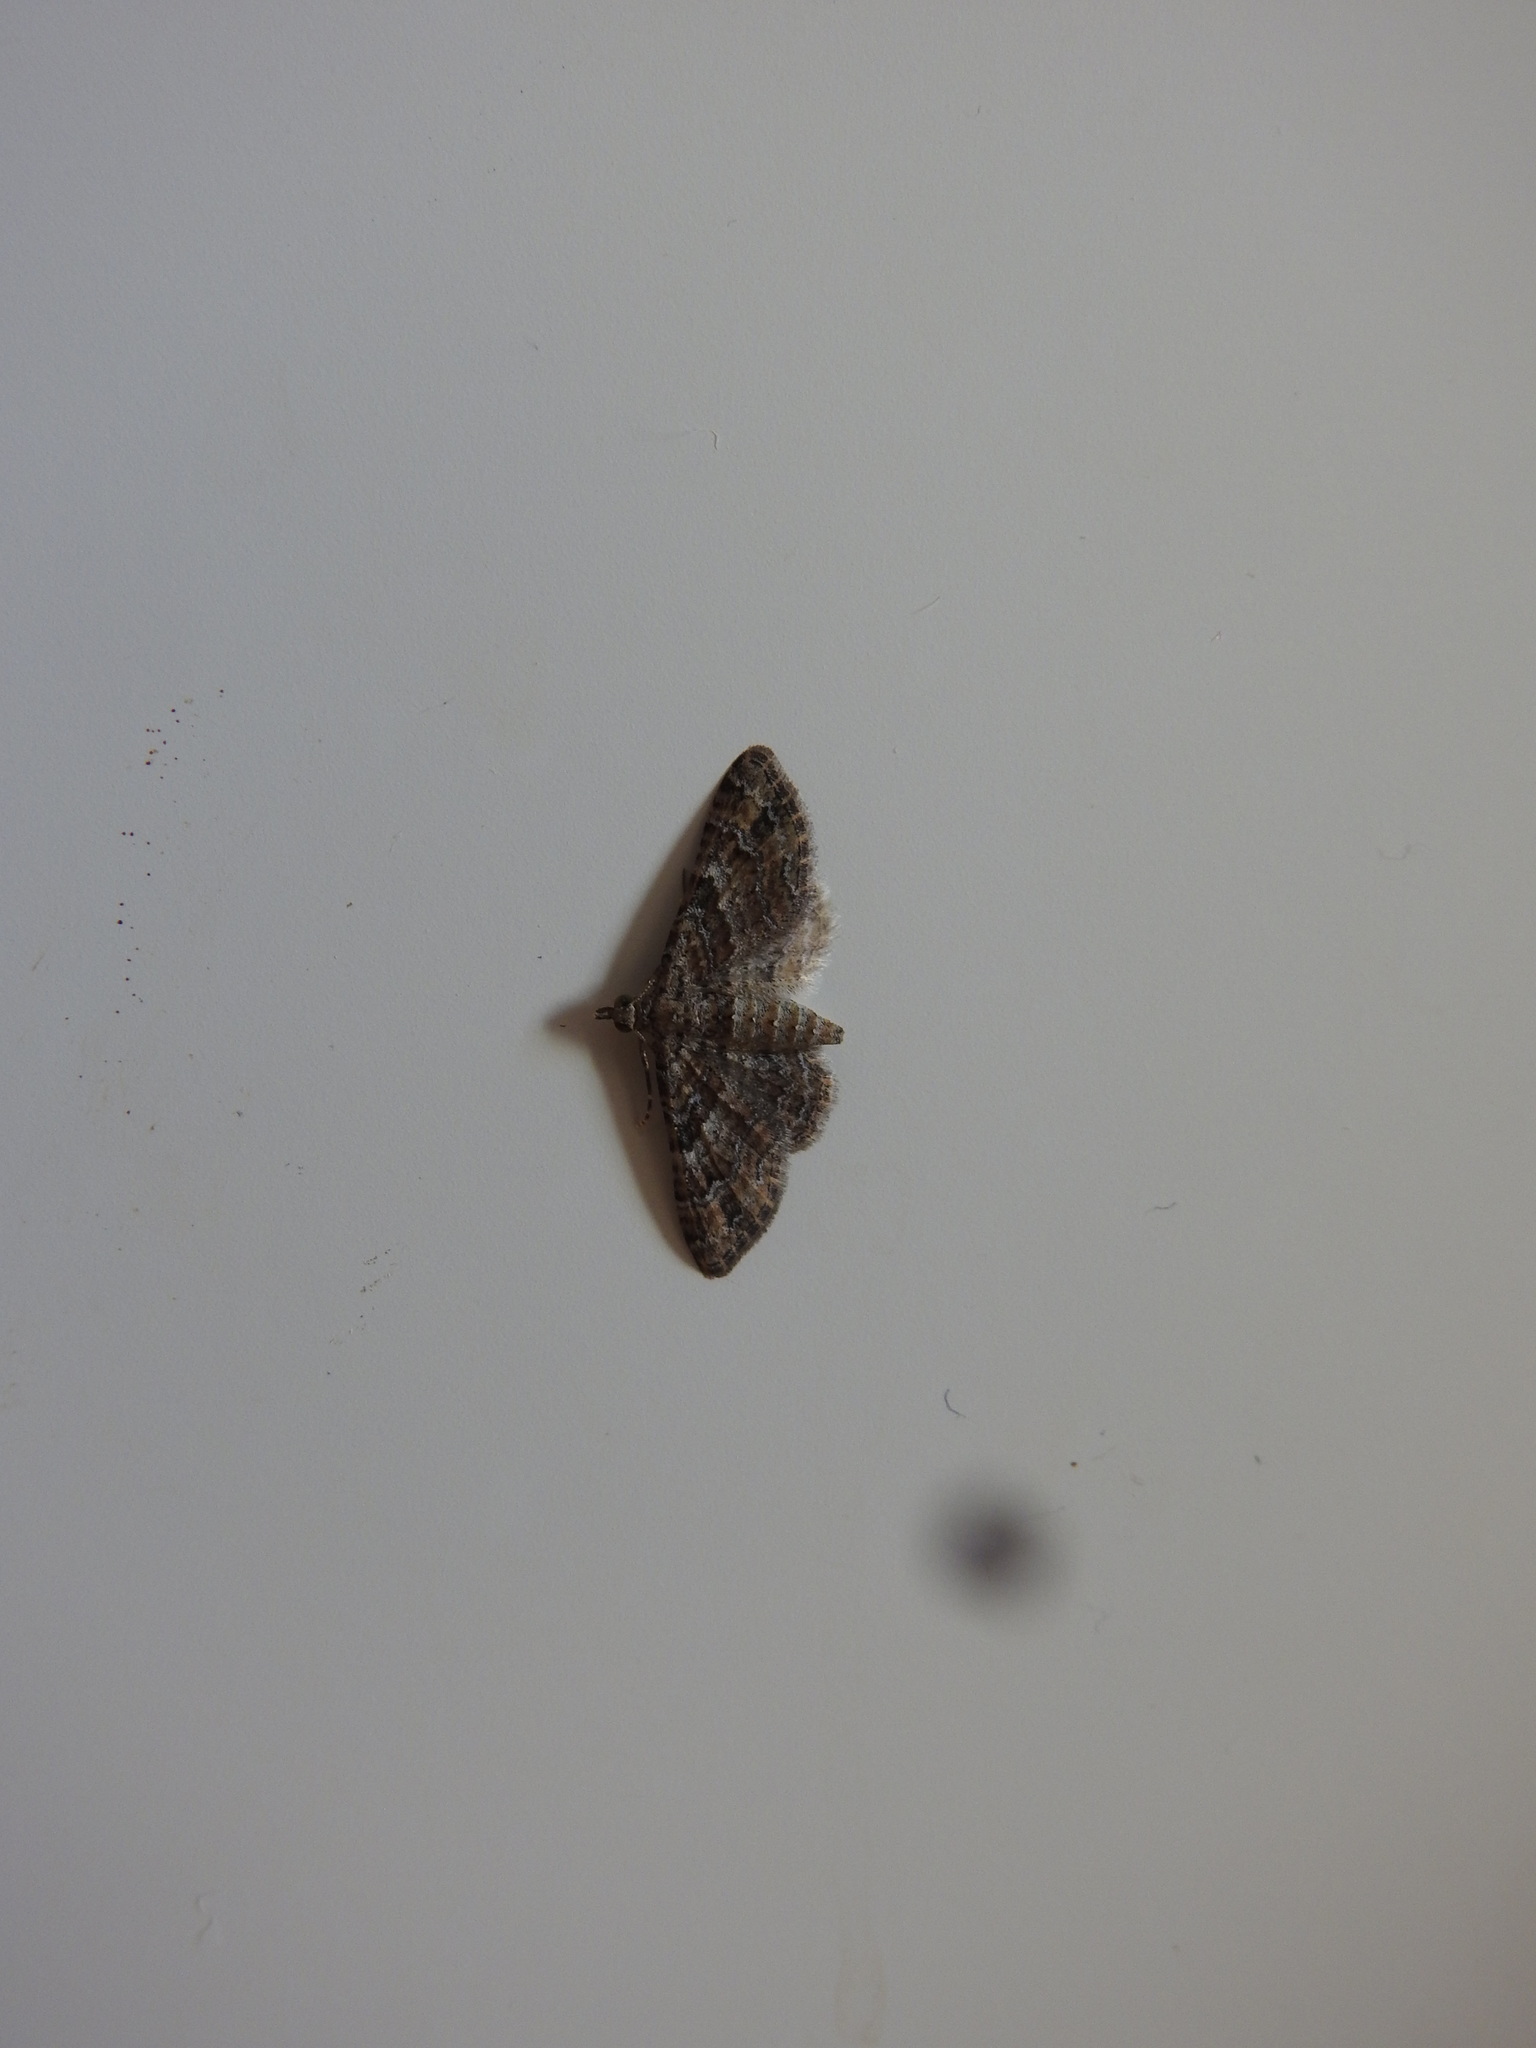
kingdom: Animalia
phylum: Arthropoda
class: Insecta
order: Lepidoptera
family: Geometridae
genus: Gymnoscelis
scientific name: Gymnoscelis rufifasciata
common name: Double-striped pug
